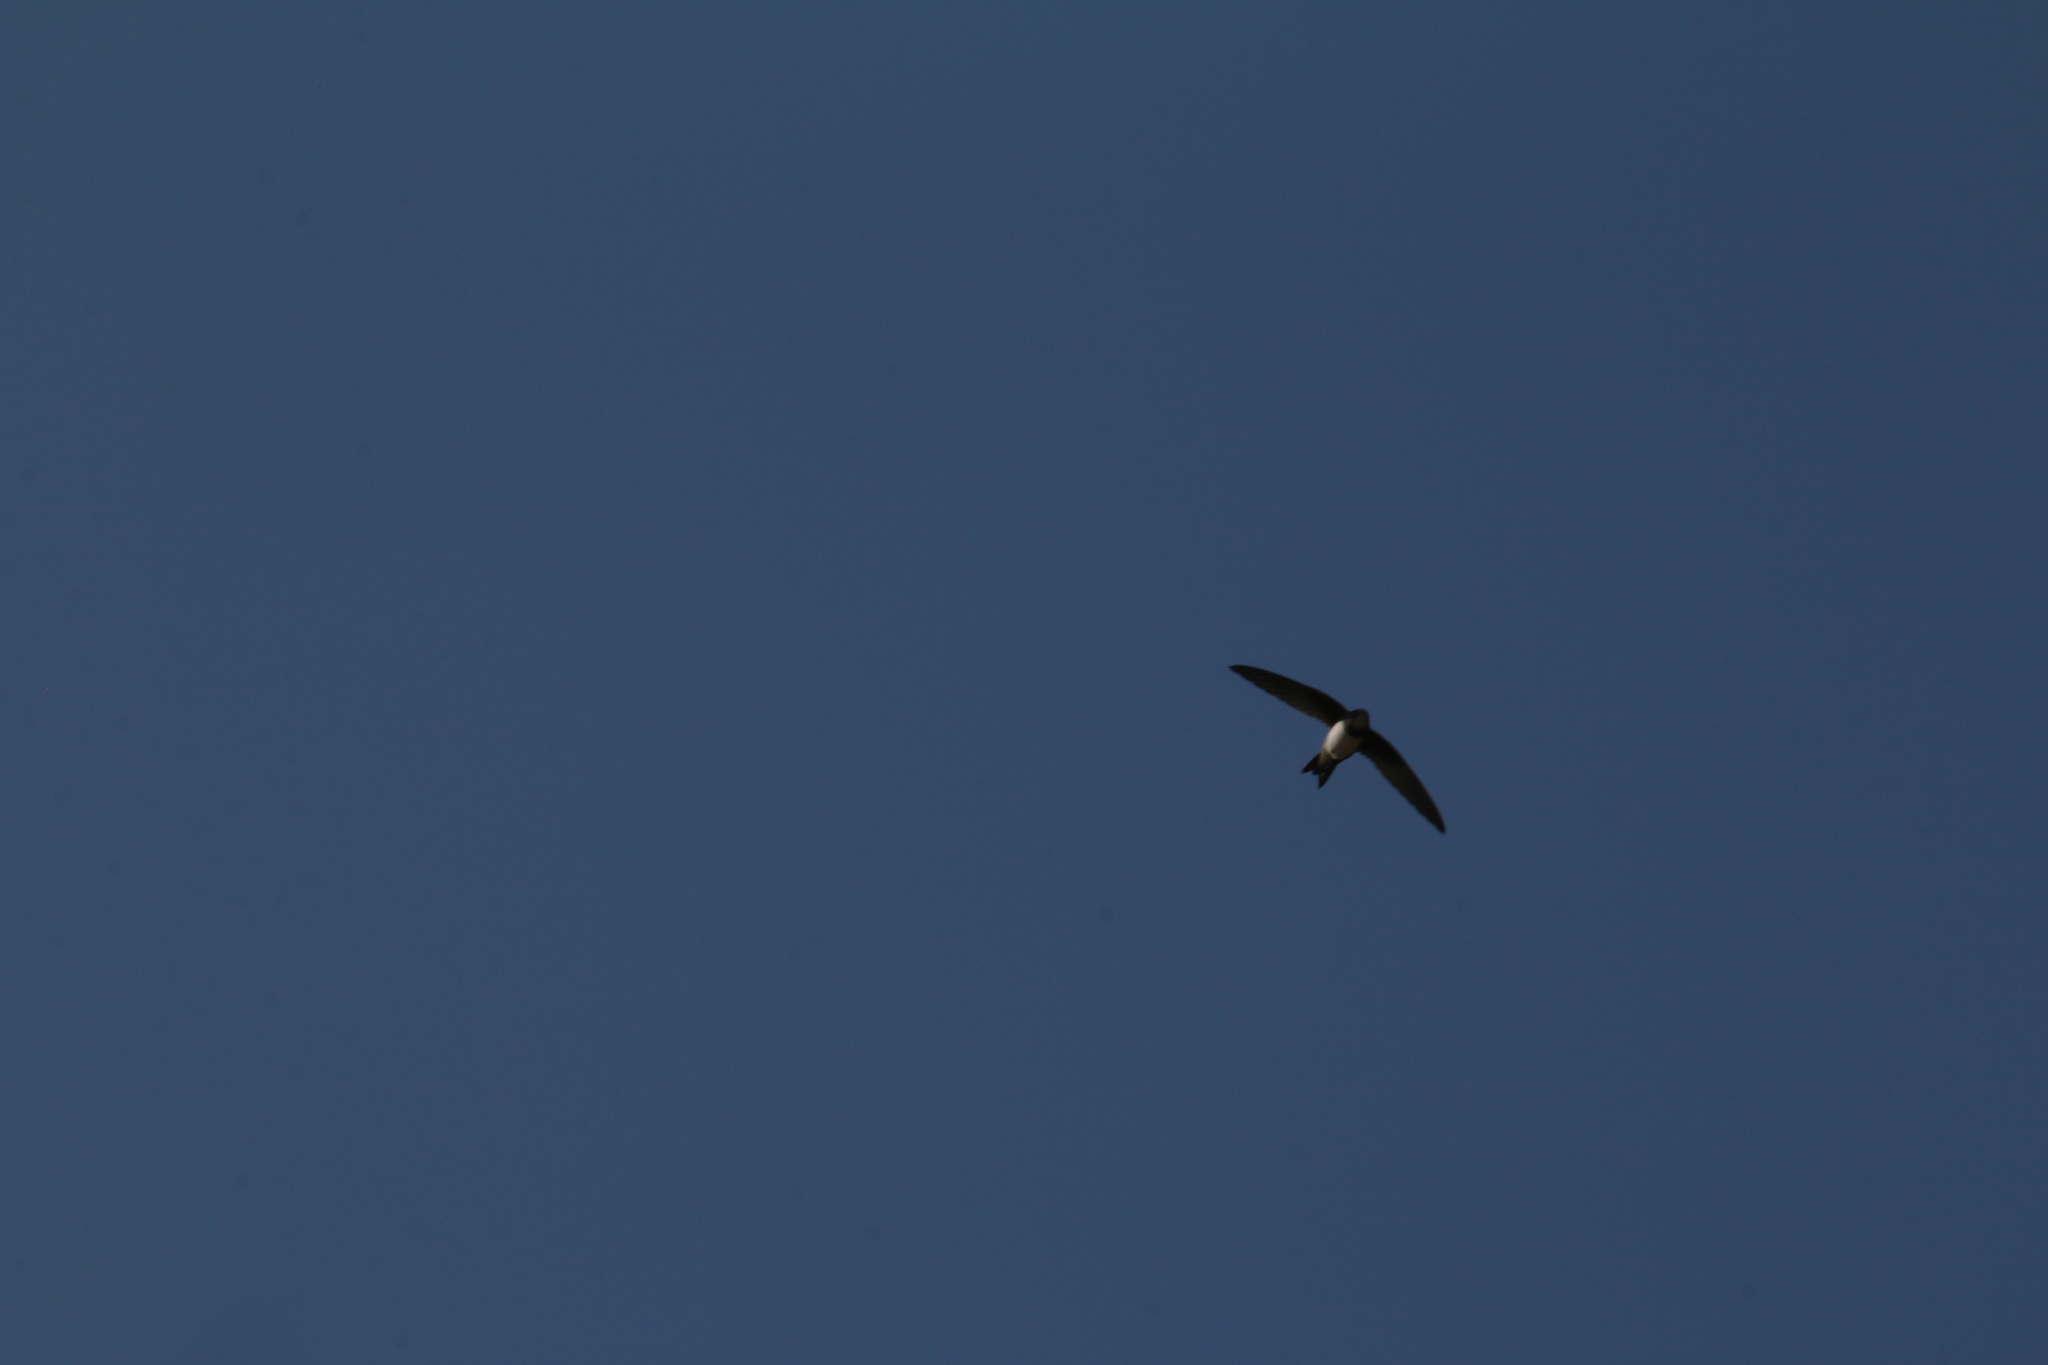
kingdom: Animalia
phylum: Chordata
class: Aves
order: Apodiformes
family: Apodidae
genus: Tachymarptis
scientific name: Tachymarptis melba
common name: Alpine swift
